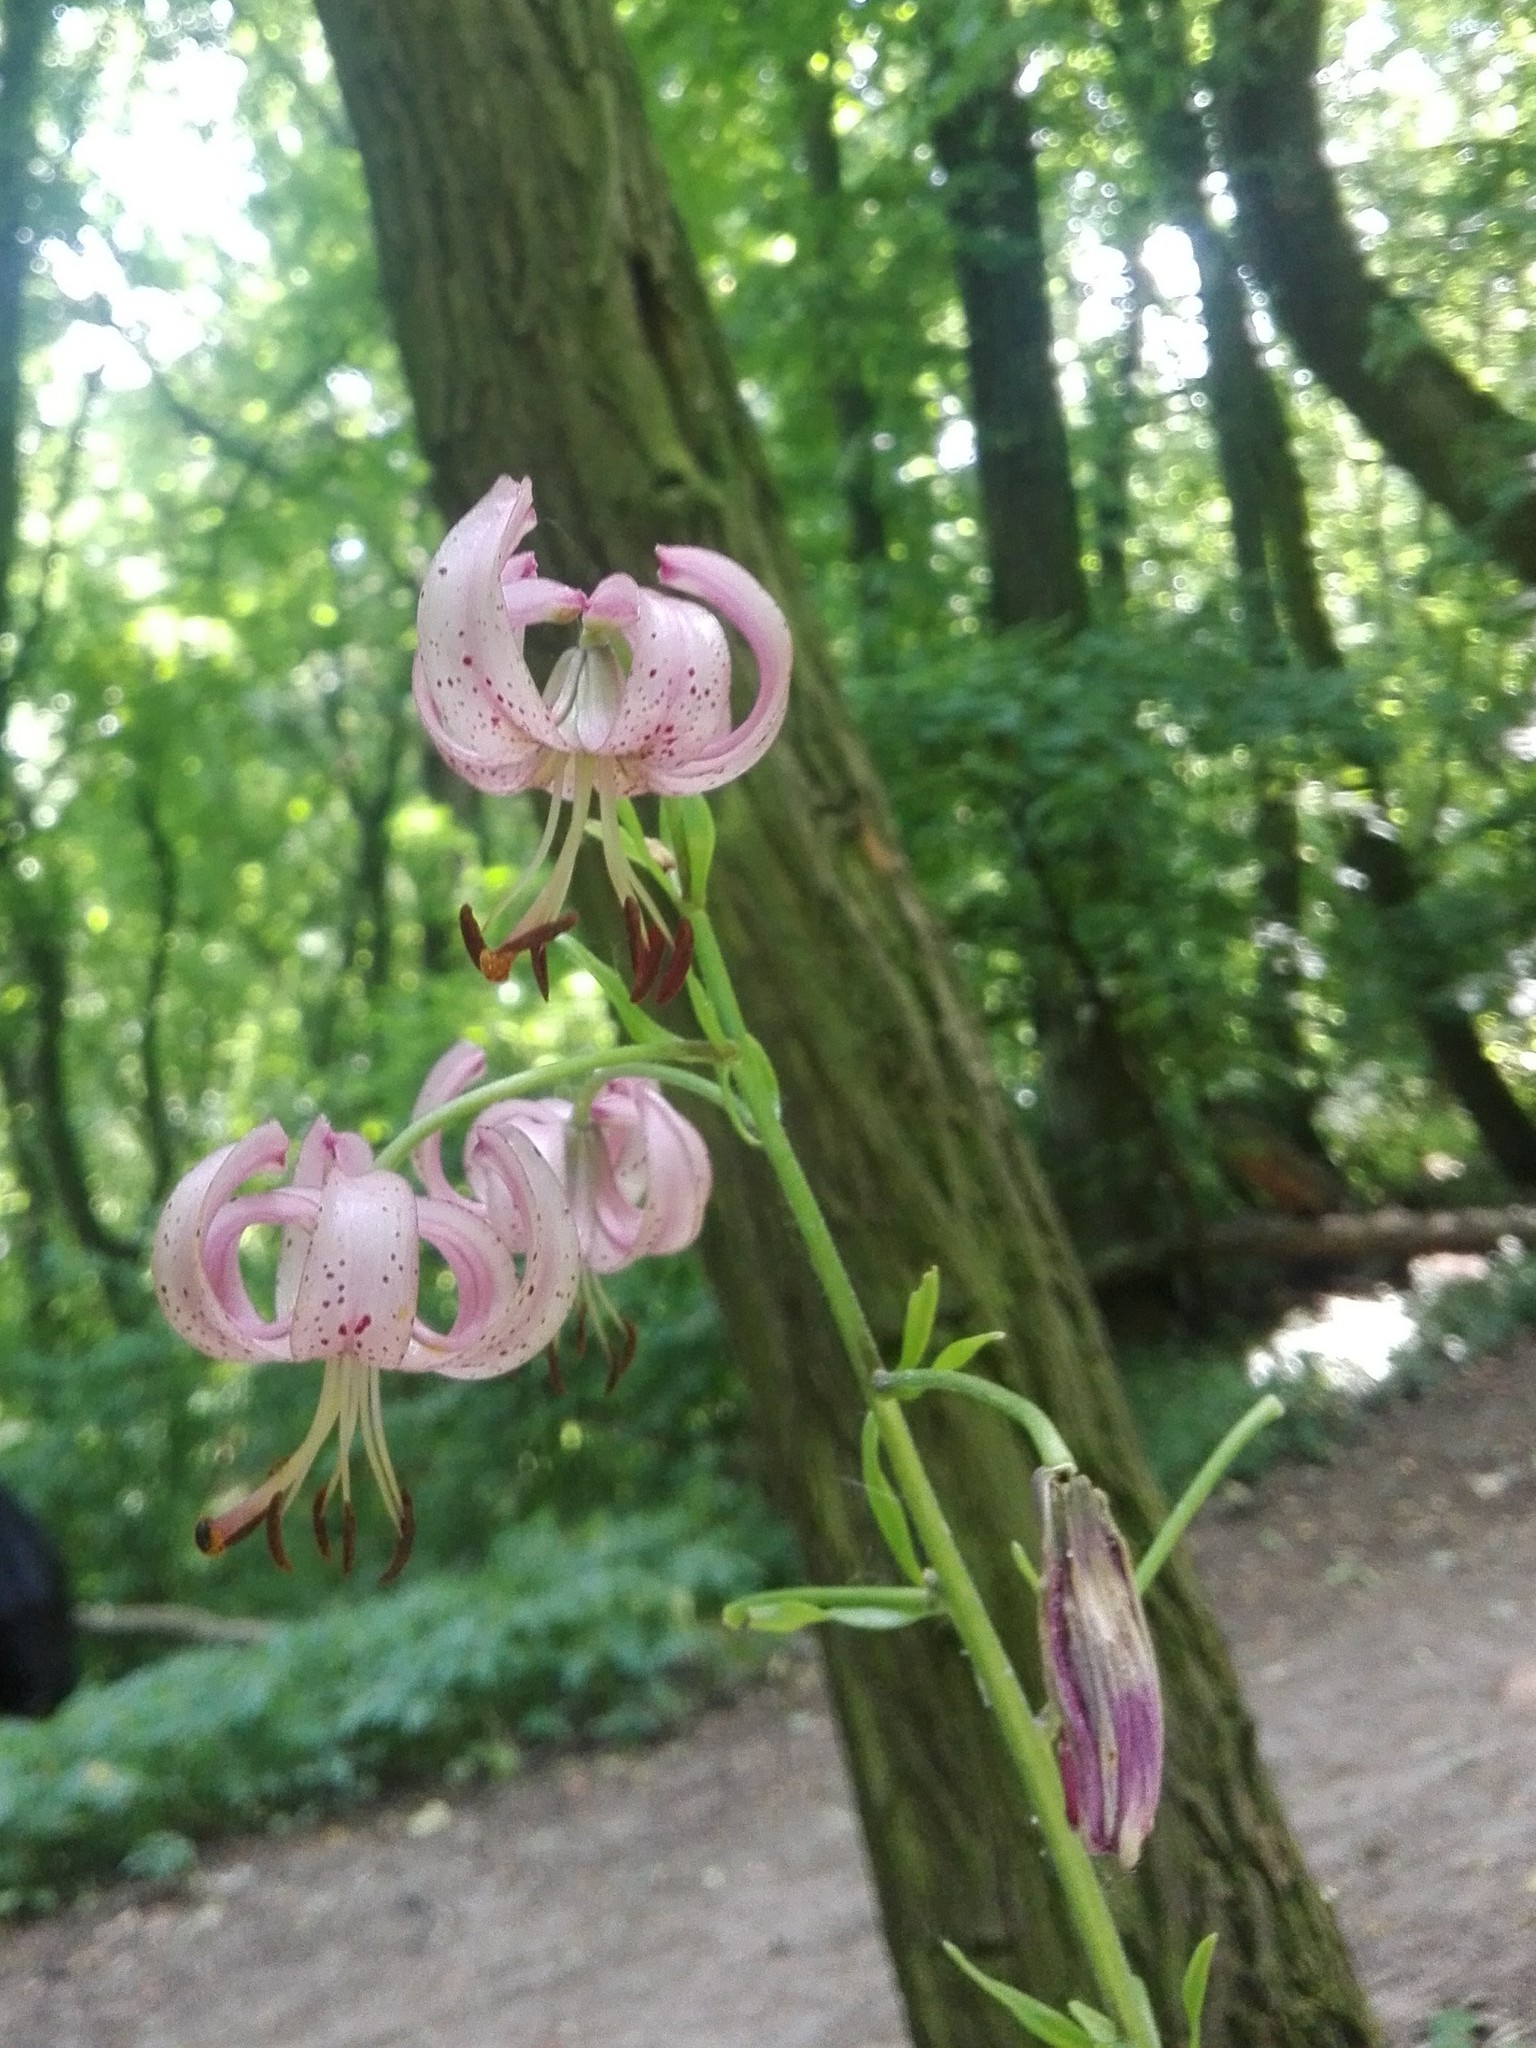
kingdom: Plantae
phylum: Tracheophyta
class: Liliopsida
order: Liliales
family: Liliaceae
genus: Lilium
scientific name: Lilium martagon
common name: Martagon lily
